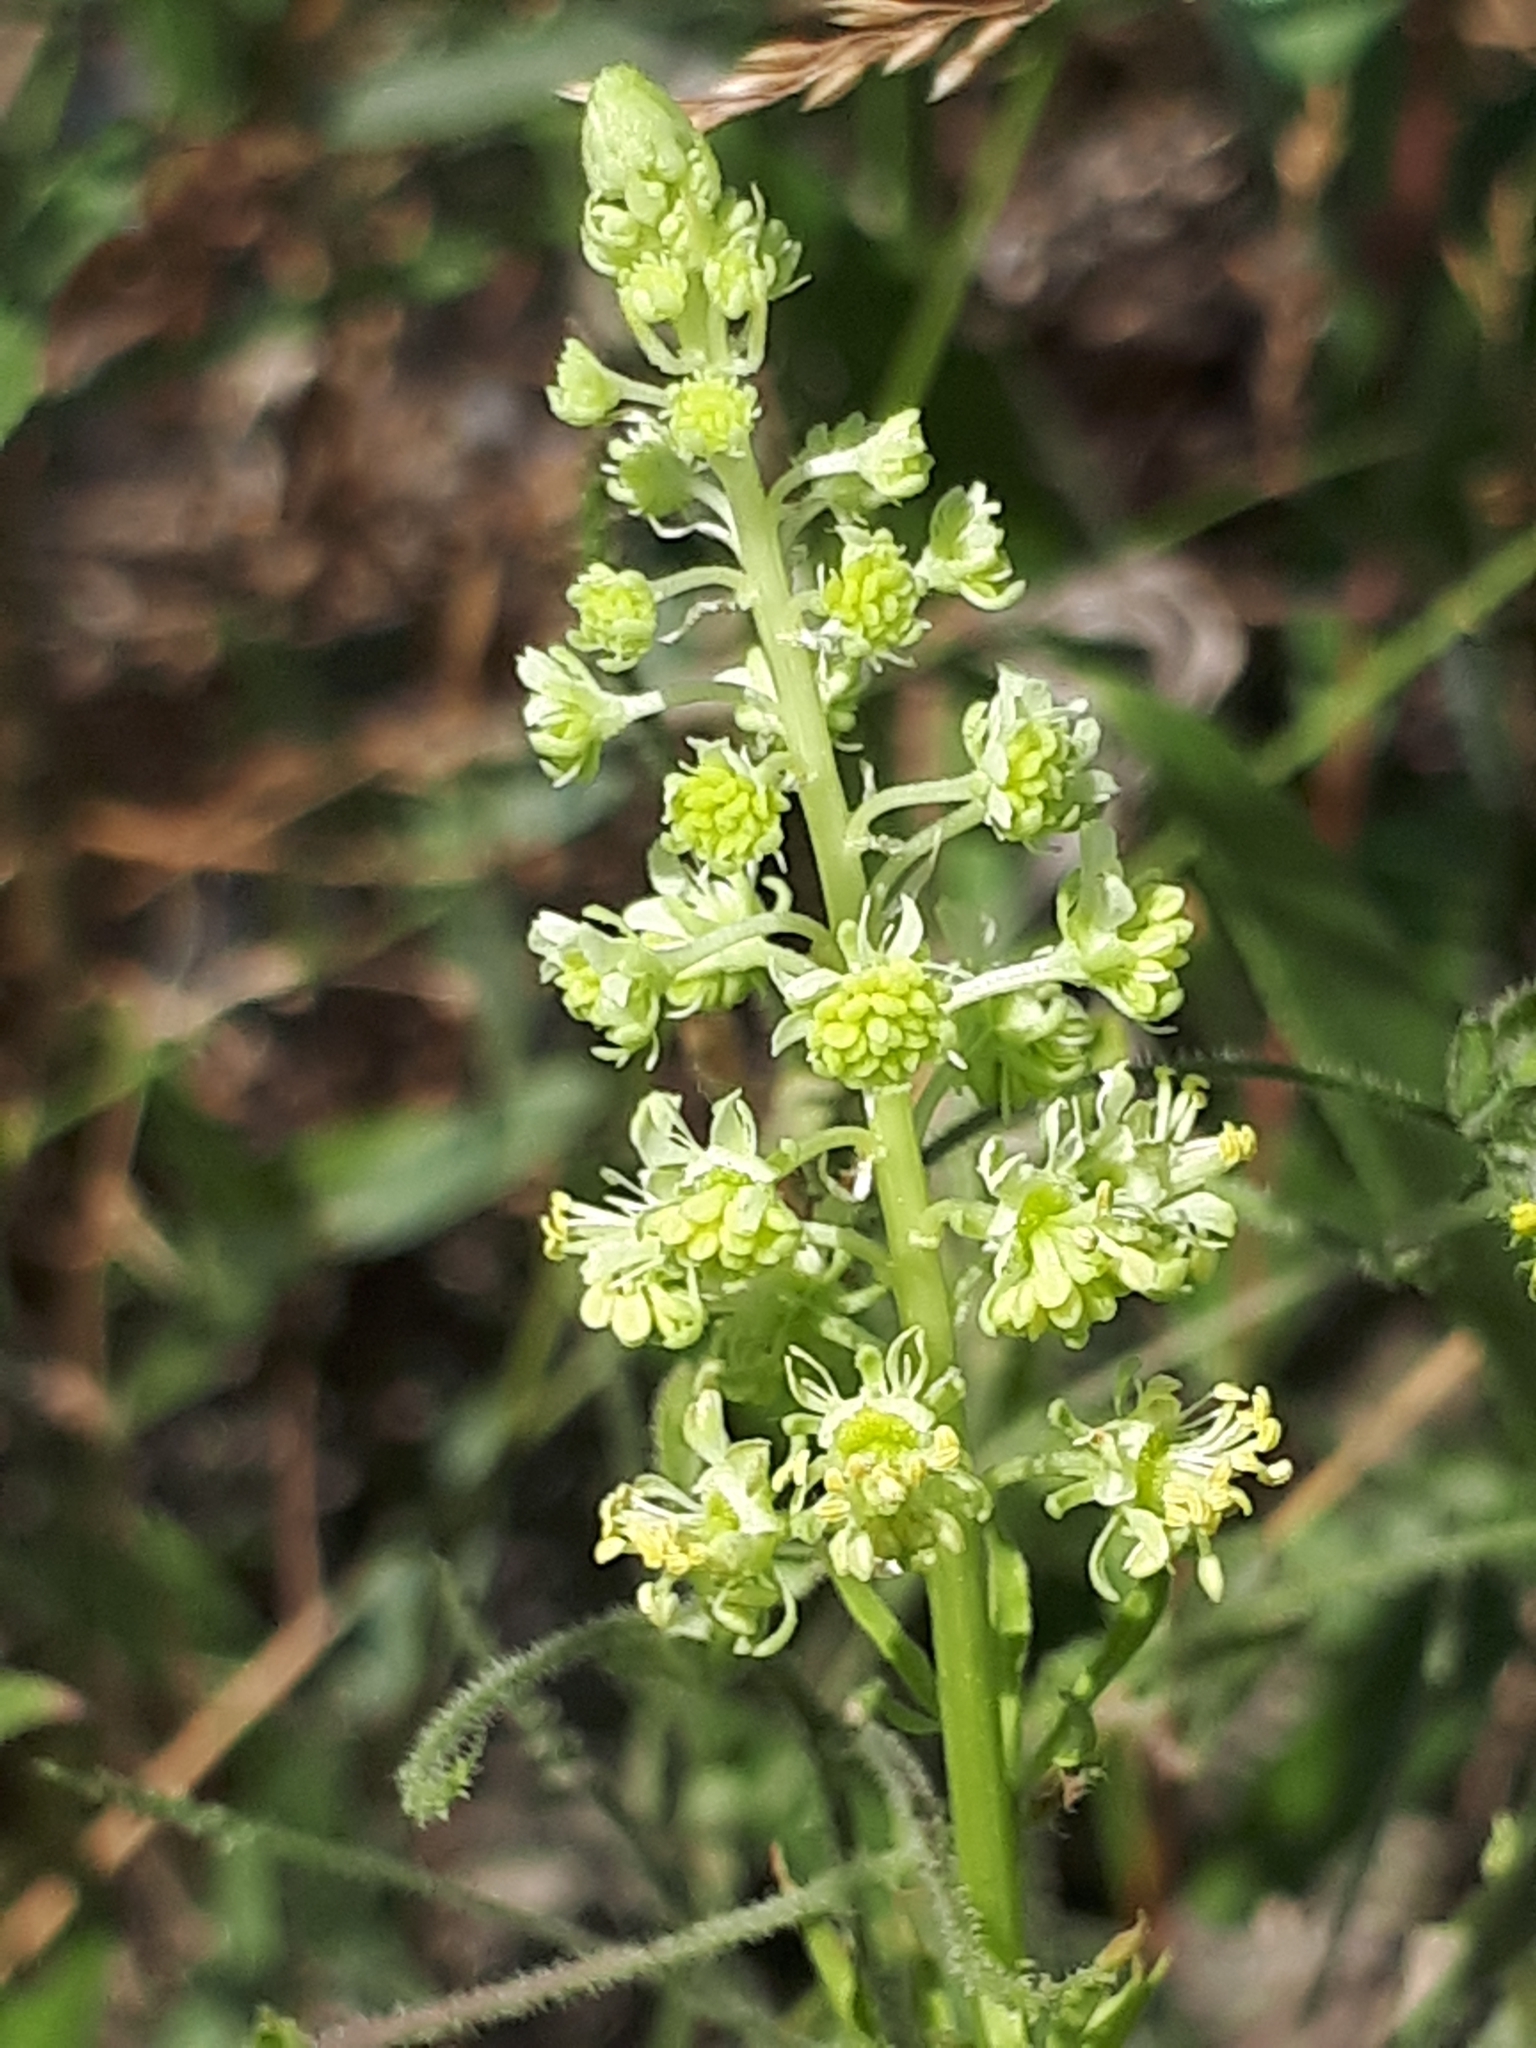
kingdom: Plantae
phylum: Tracheophyta
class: Magnoliopsida
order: Brassicales
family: Resedaceae
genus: Reseda
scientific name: Reseda lutea
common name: Wild mignonette
